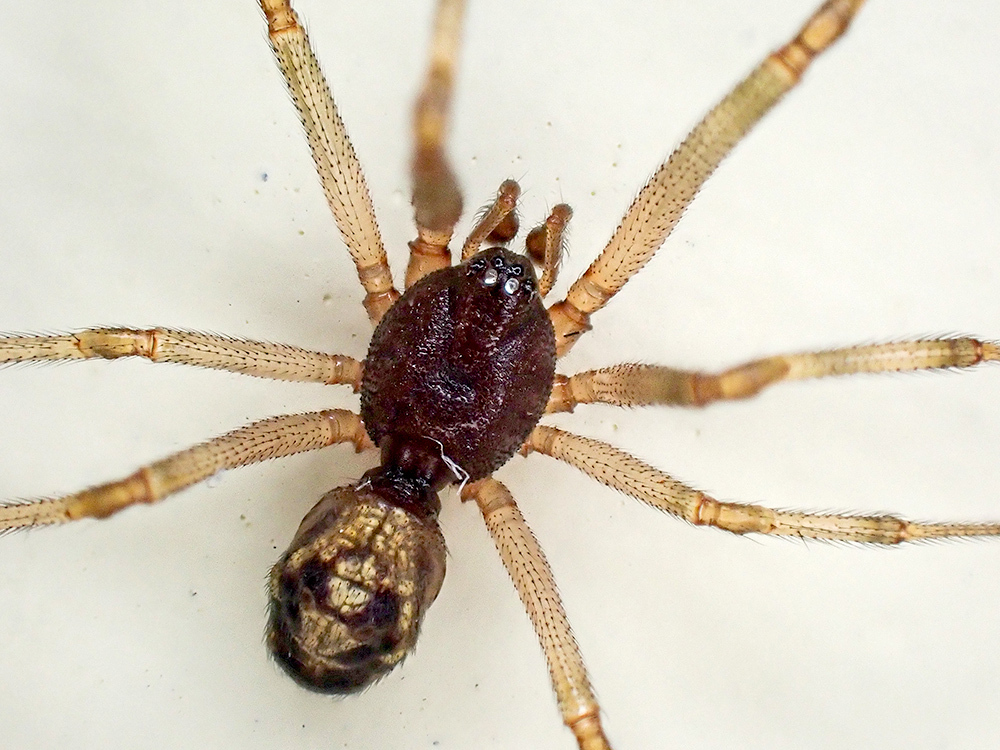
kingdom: Animalia
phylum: Arthropoda
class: Arachnida
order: Araneae
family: Theridiidae
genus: Steatoda
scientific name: Steatoda triangulosa
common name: Triangulate bud spider
